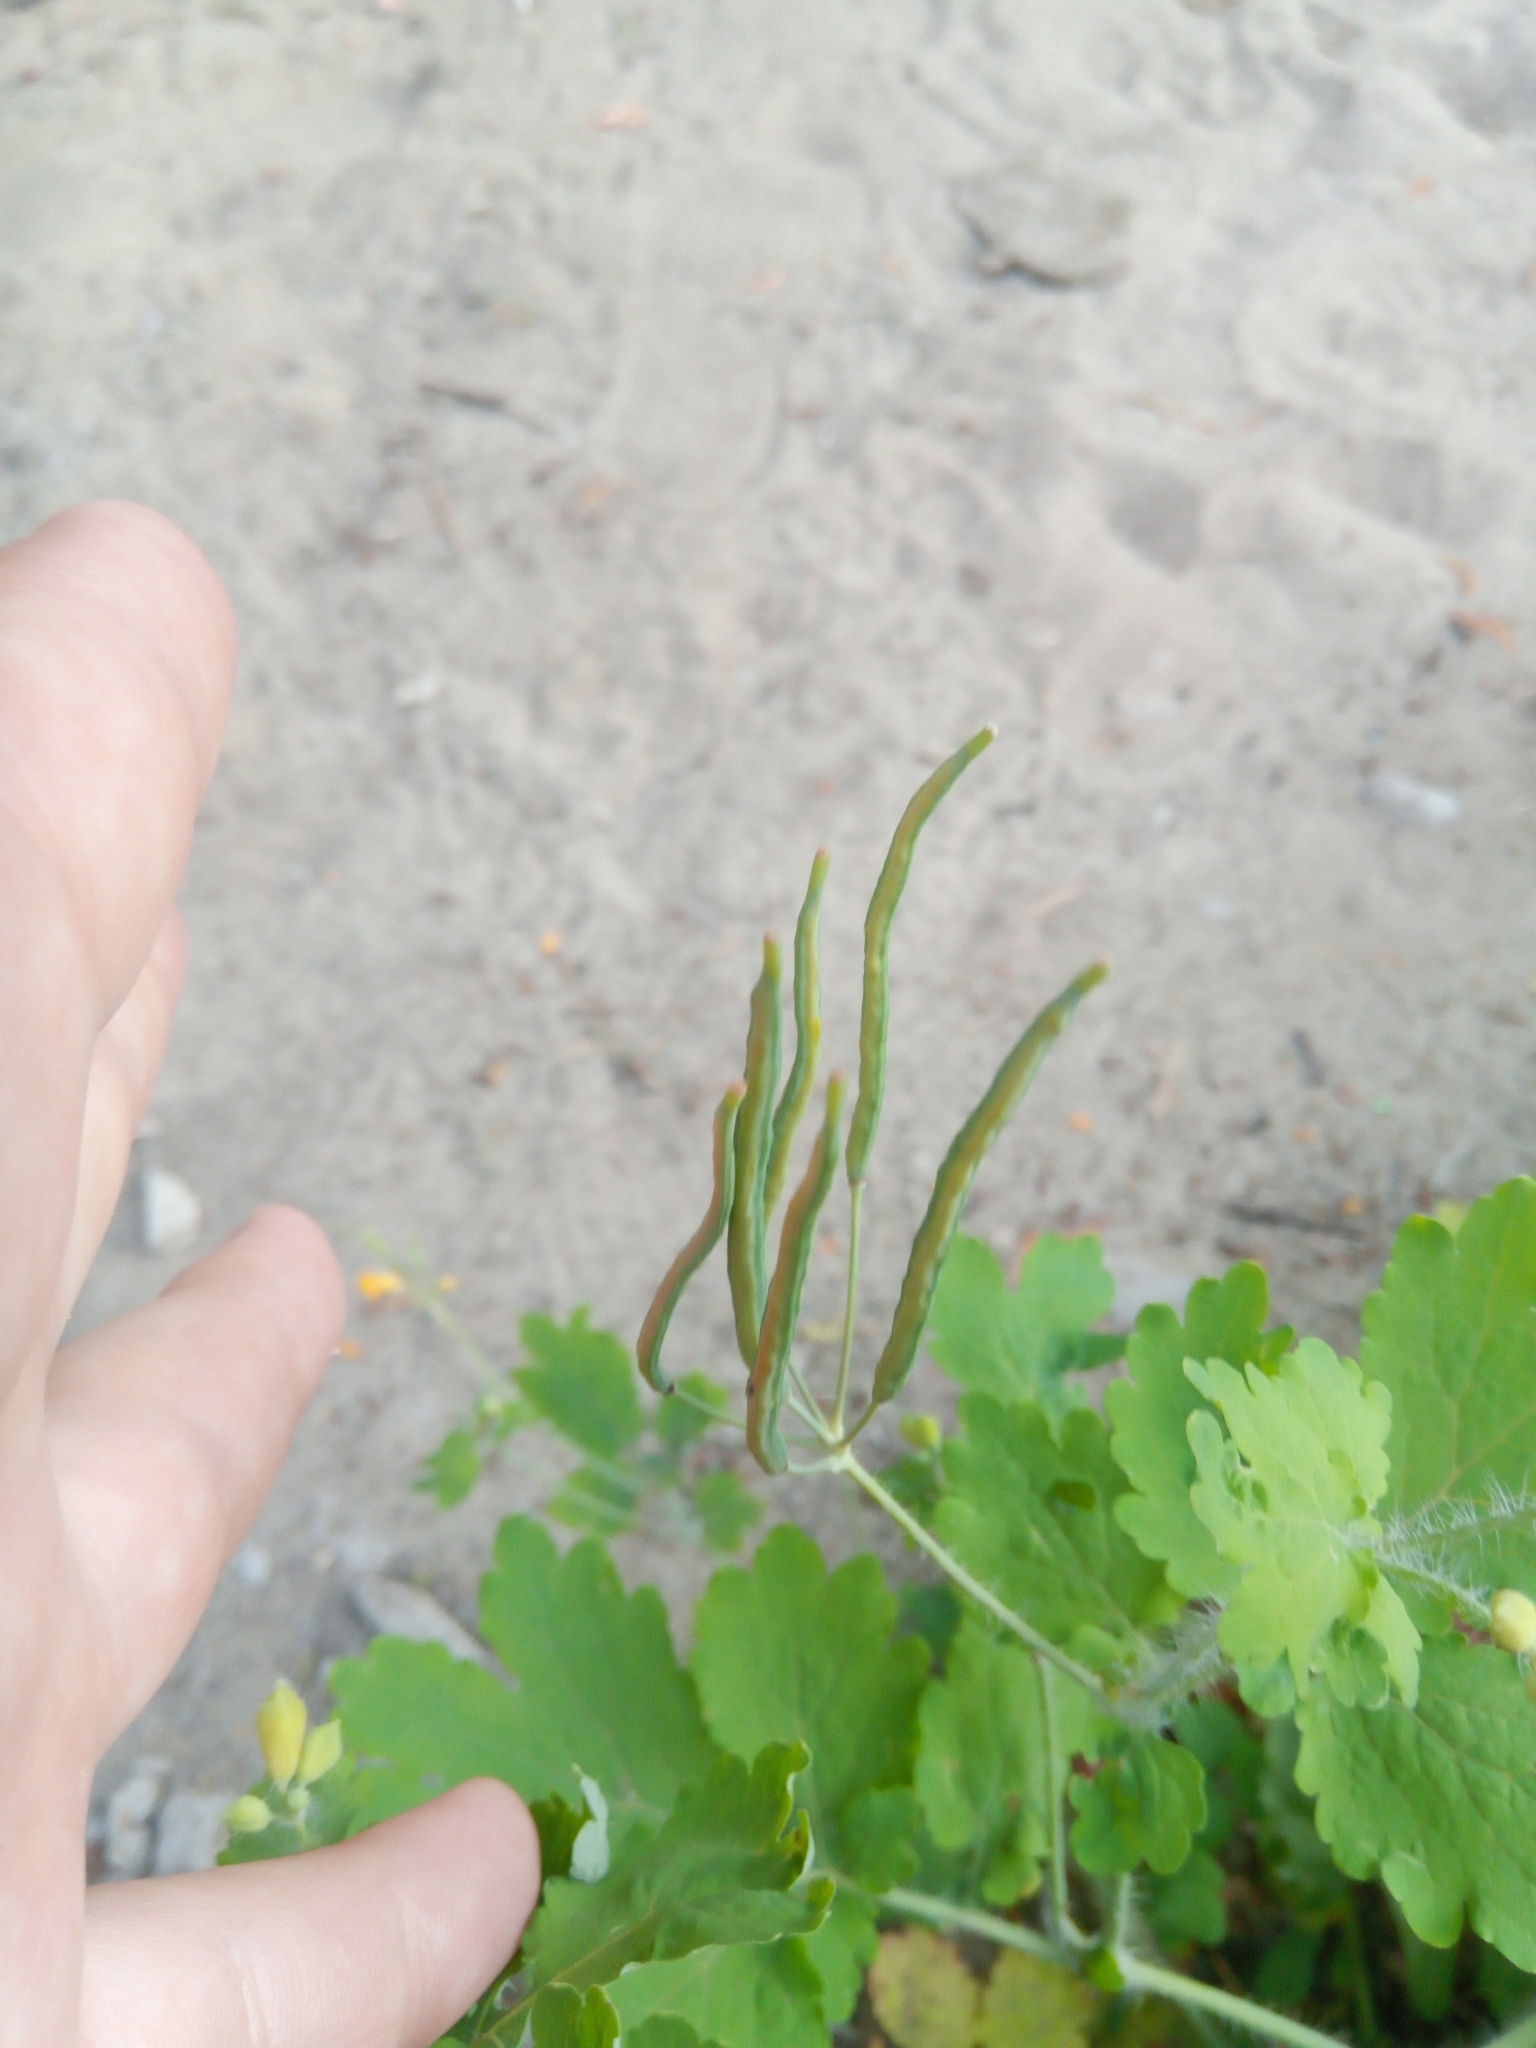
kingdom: Plantae
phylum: Tracheophyta
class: Magnoliopsida
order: Ranunculales
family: Papaveraceae
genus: Chelidonium
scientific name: Chelidonium majus
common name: Greater celandine
